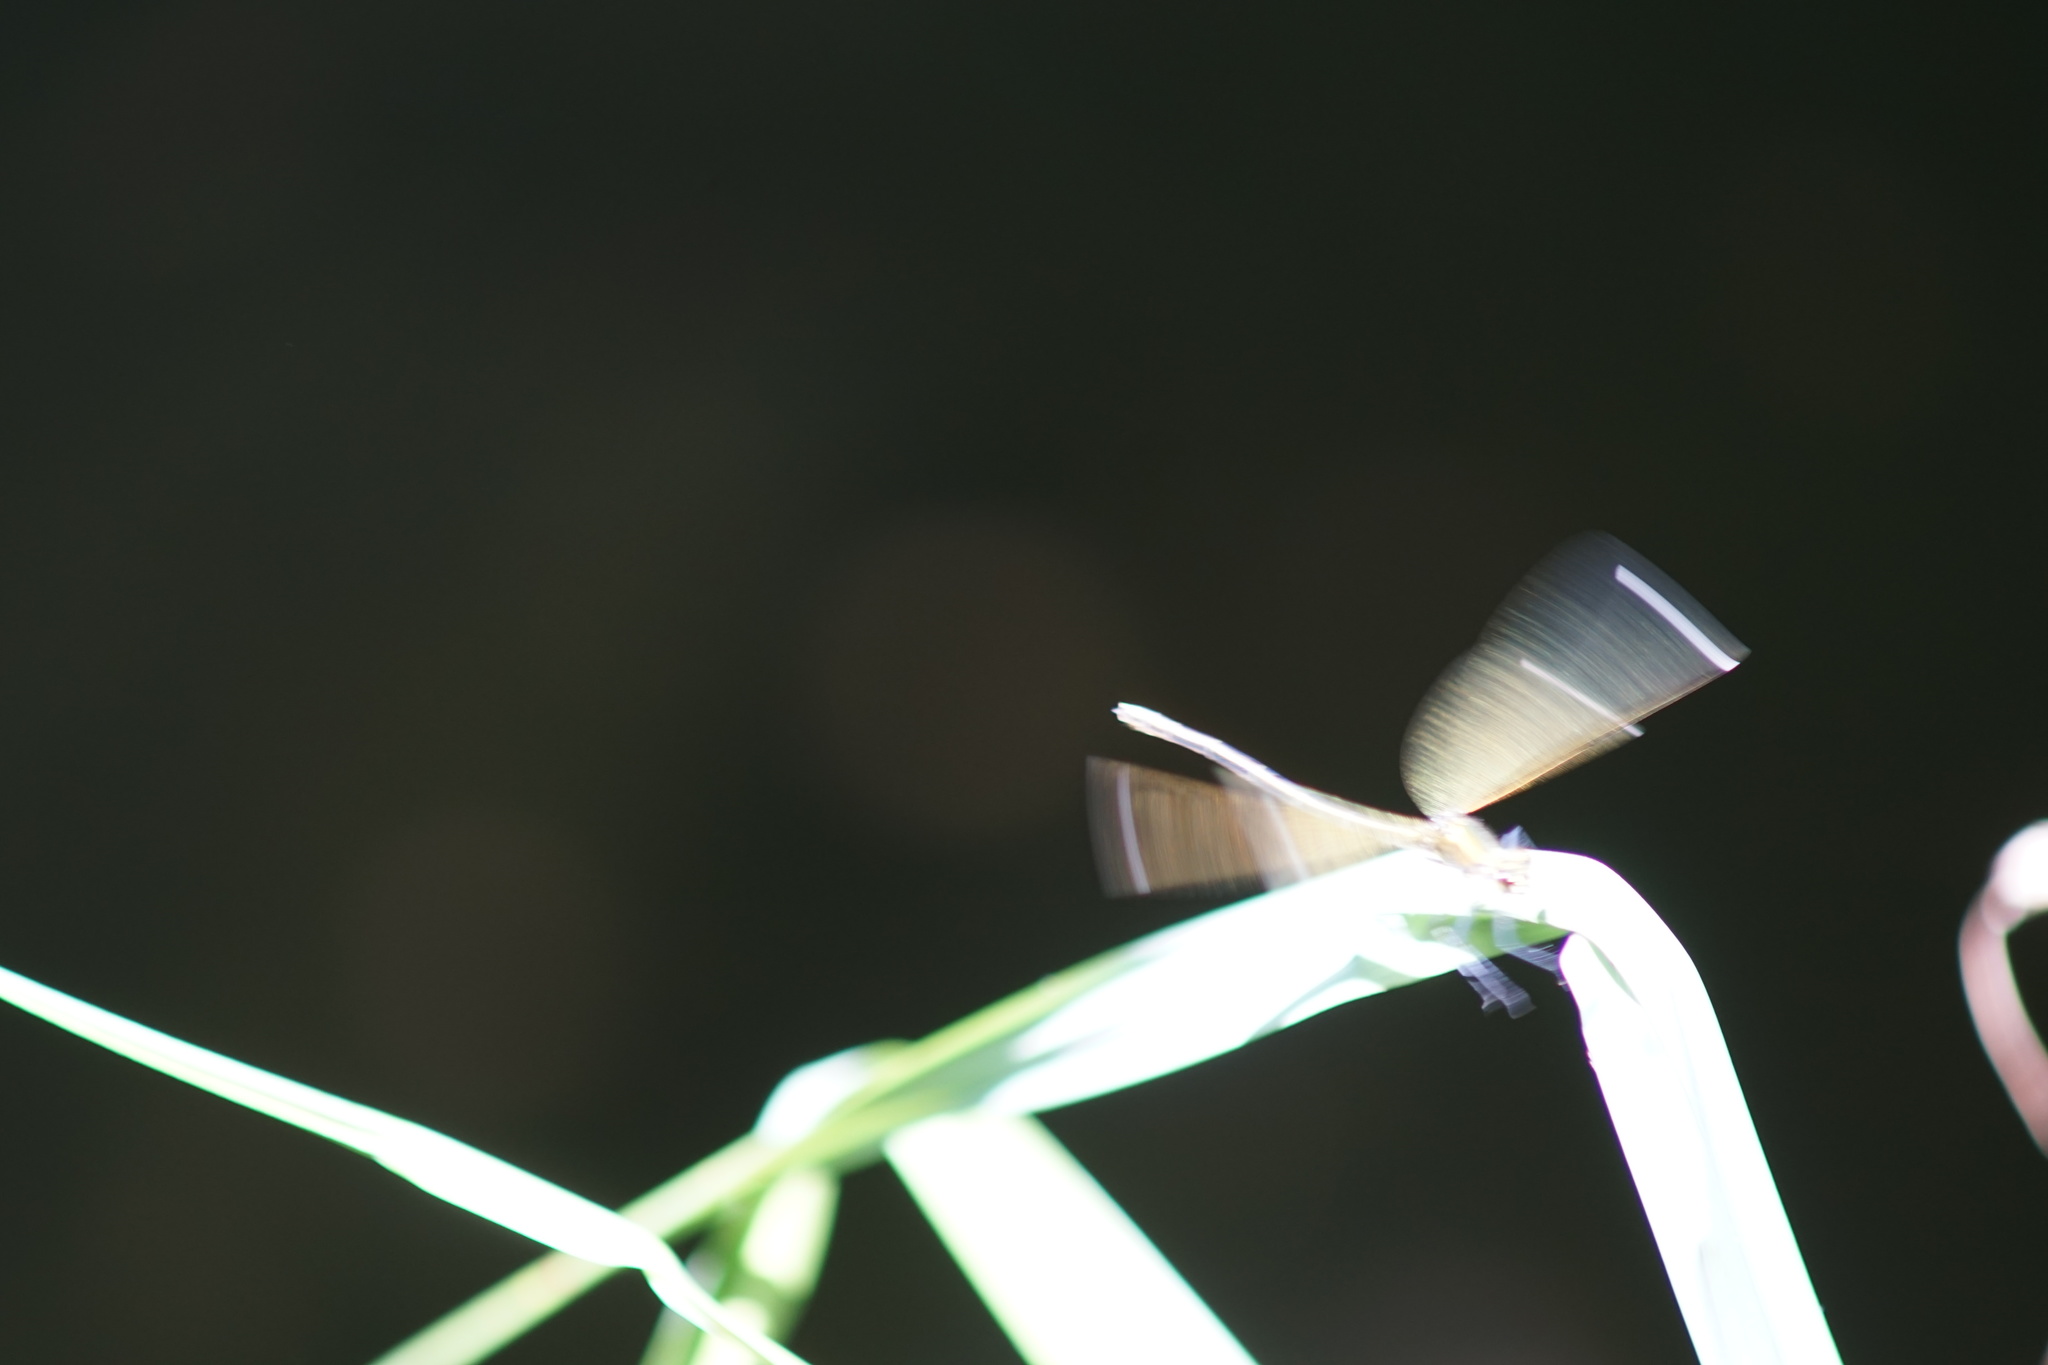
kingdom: Animalia
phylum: Arthropoda
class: Insecta
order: Odonata
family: Calopterygidae
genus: Calopteryx
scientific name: Calopteryx splendens
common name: Banded demoiselle
